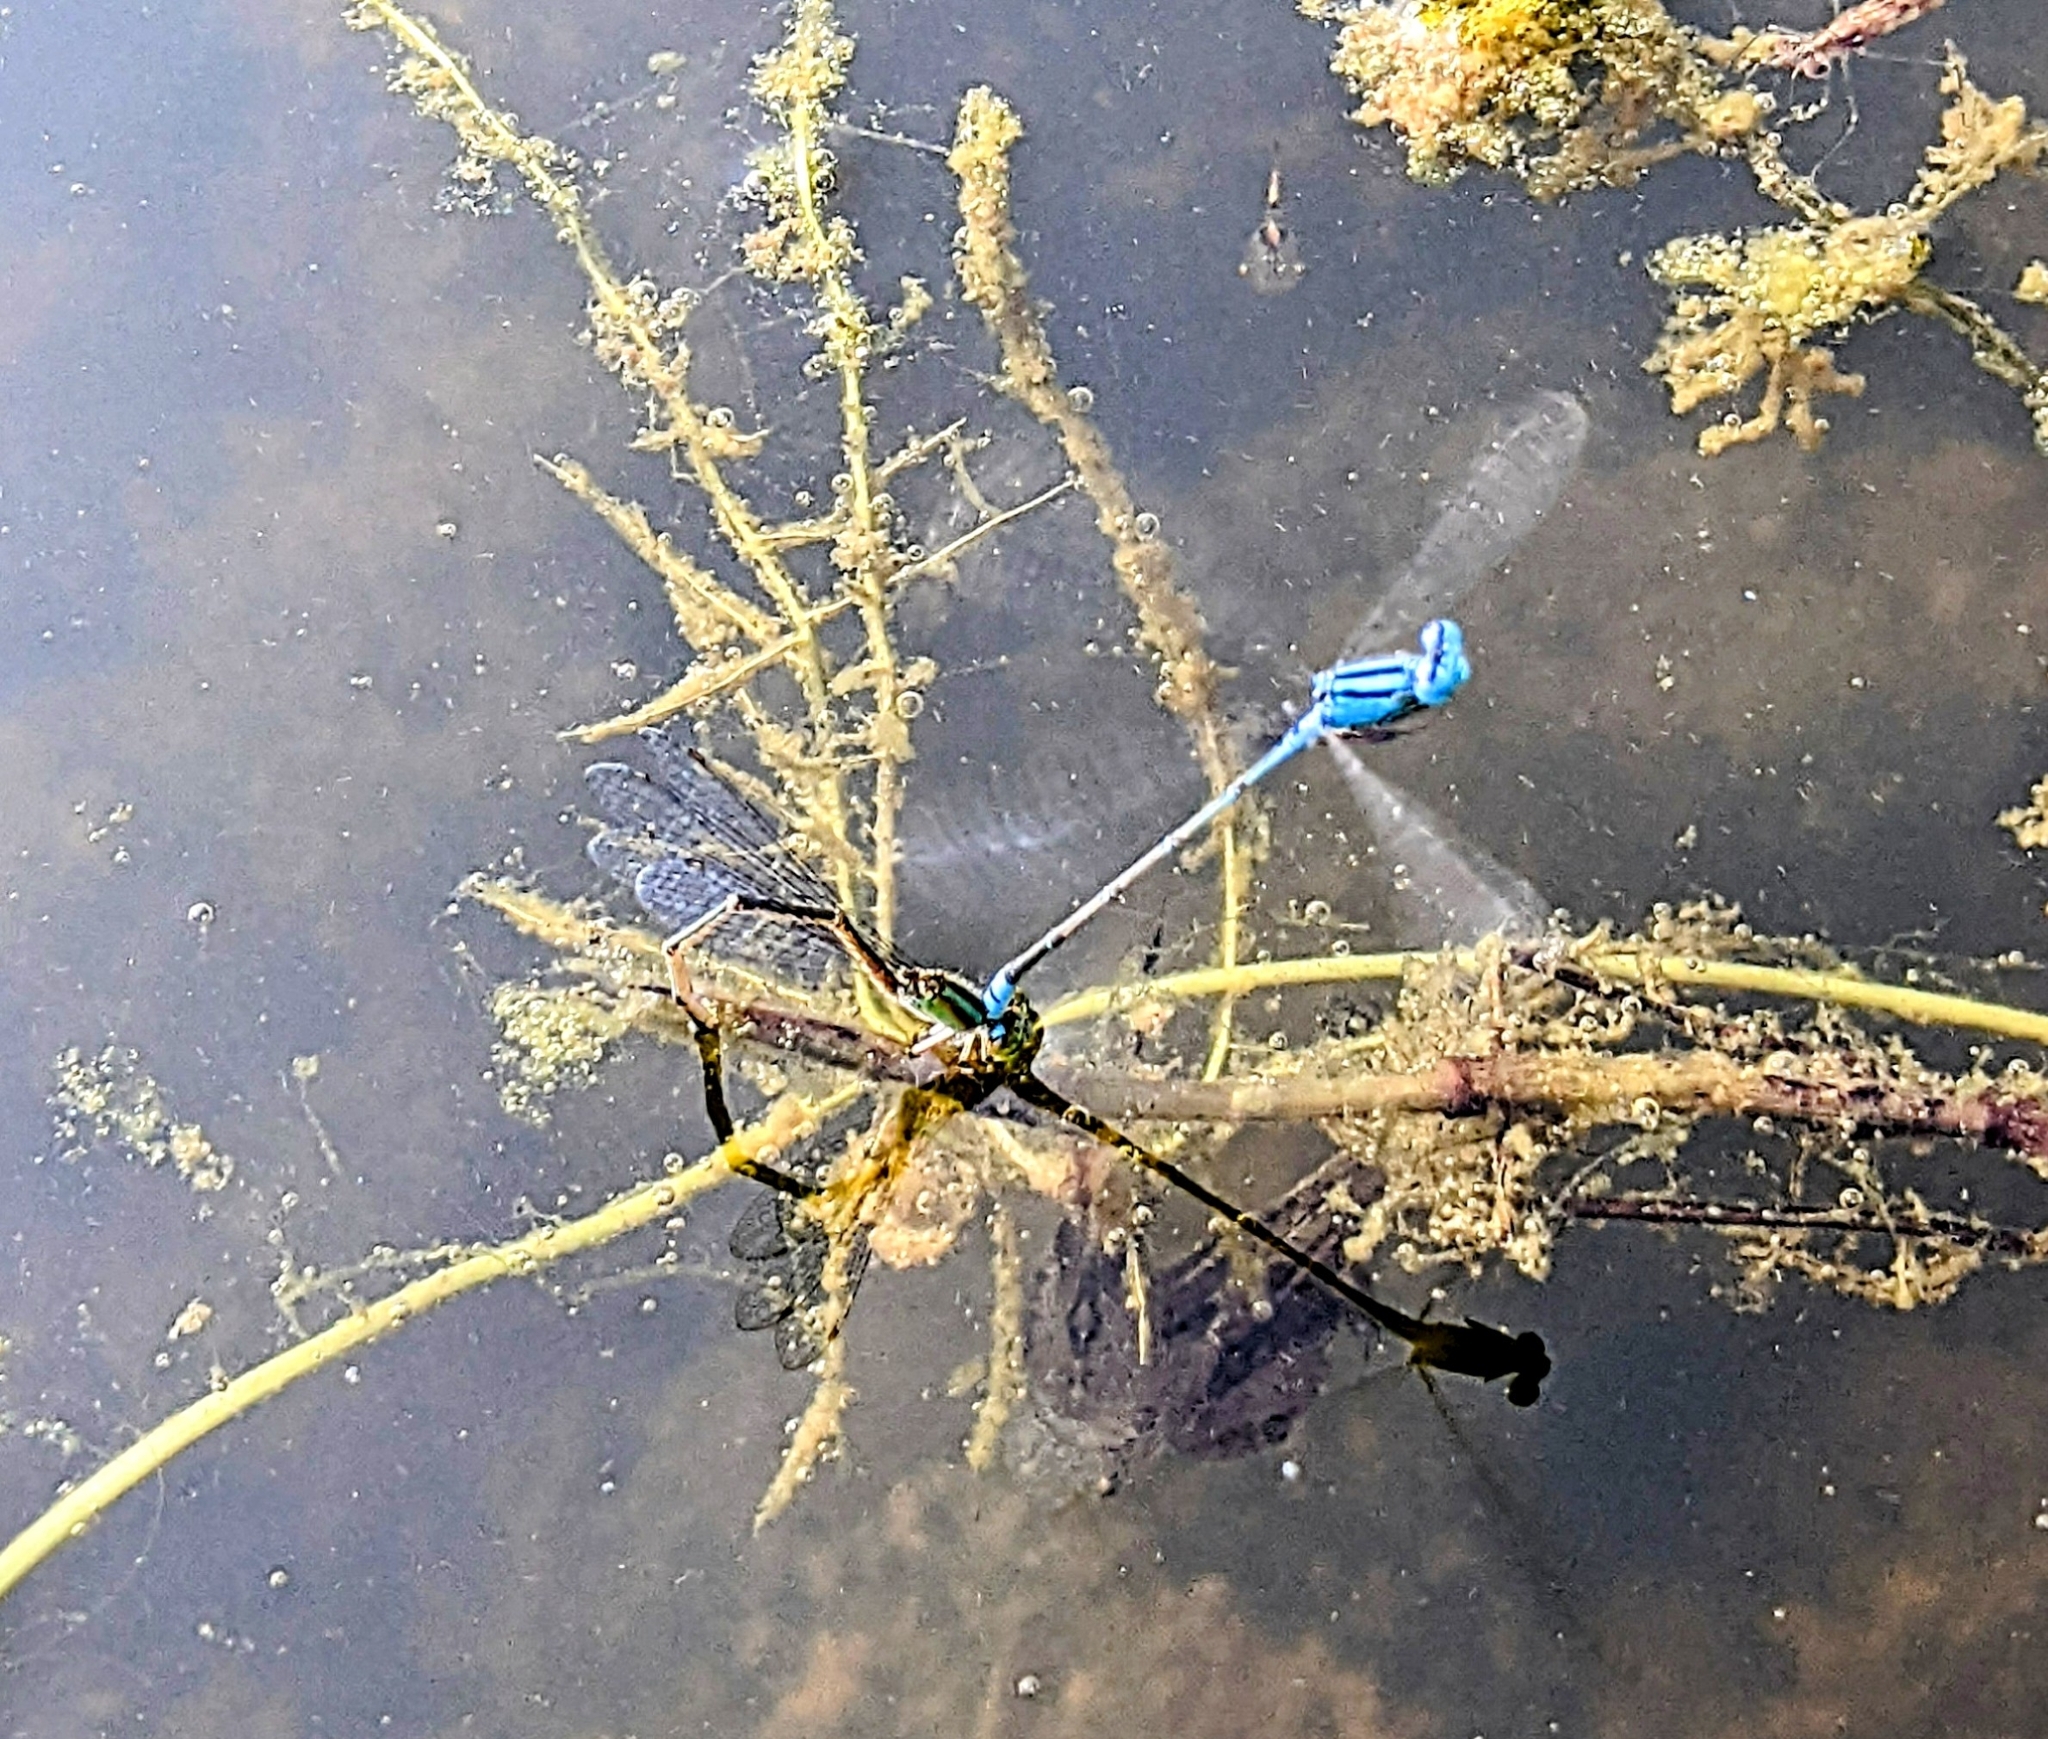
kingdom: Animalia
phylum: Arthropoda
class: Insecta
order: Odonata
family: Coenagrionidae
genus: Pseudagrion
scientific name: Pseudagrion australasiae
